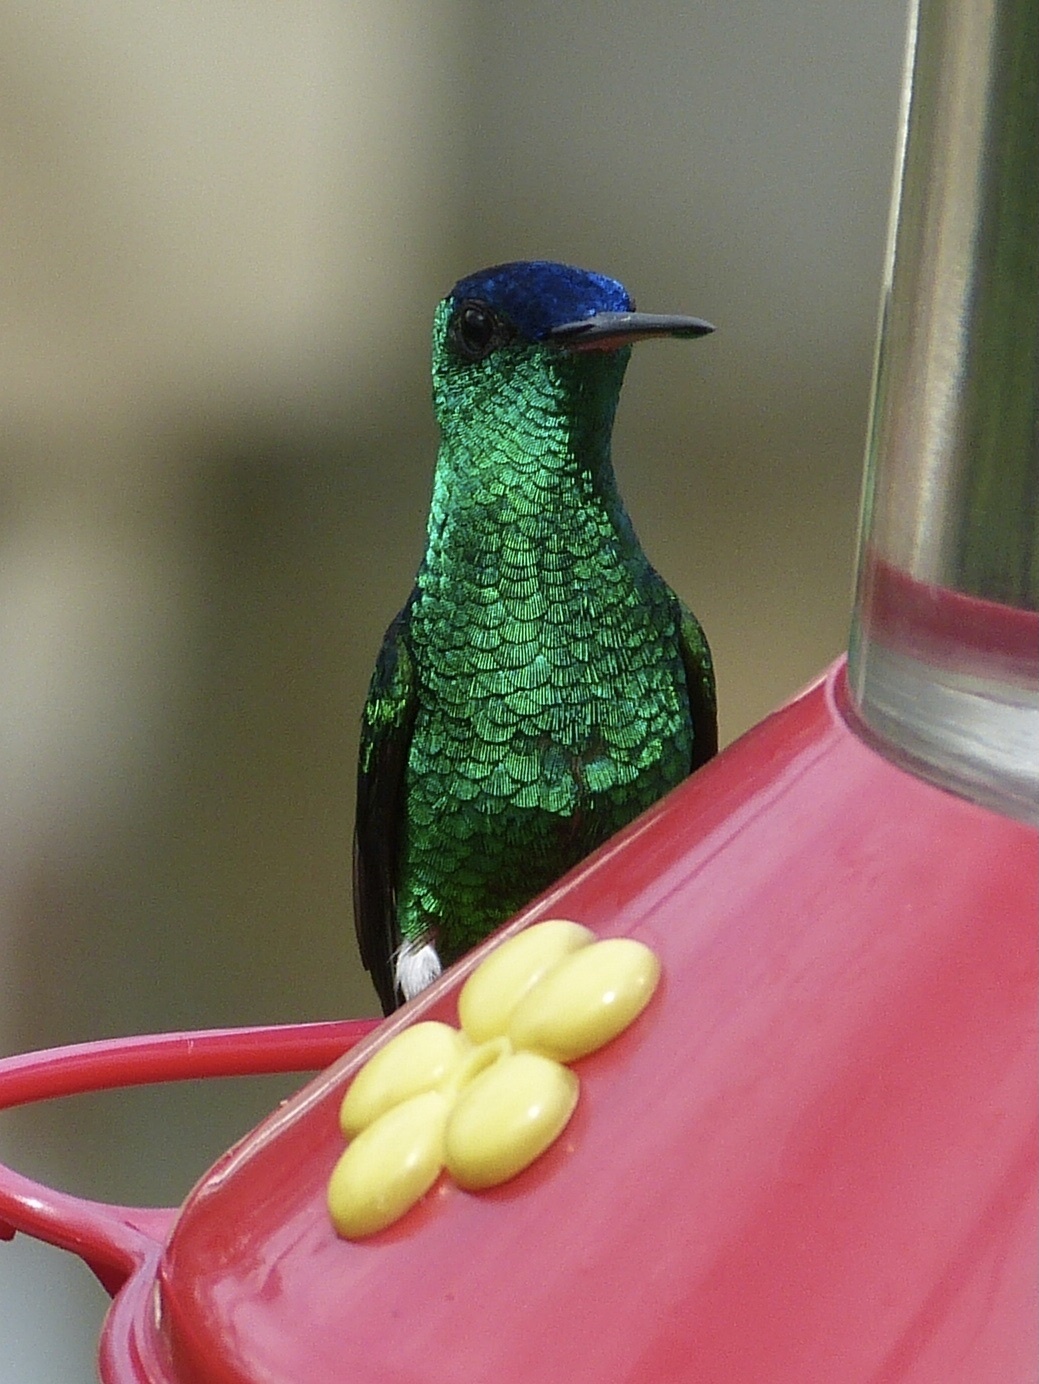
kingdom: Animalia
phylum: Chordata
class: Aves
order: Apodiformes
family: Trochilidae
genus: Saucerottia
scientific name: Saucerottia cyanifrons
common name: Indigo-capped hummingbird
